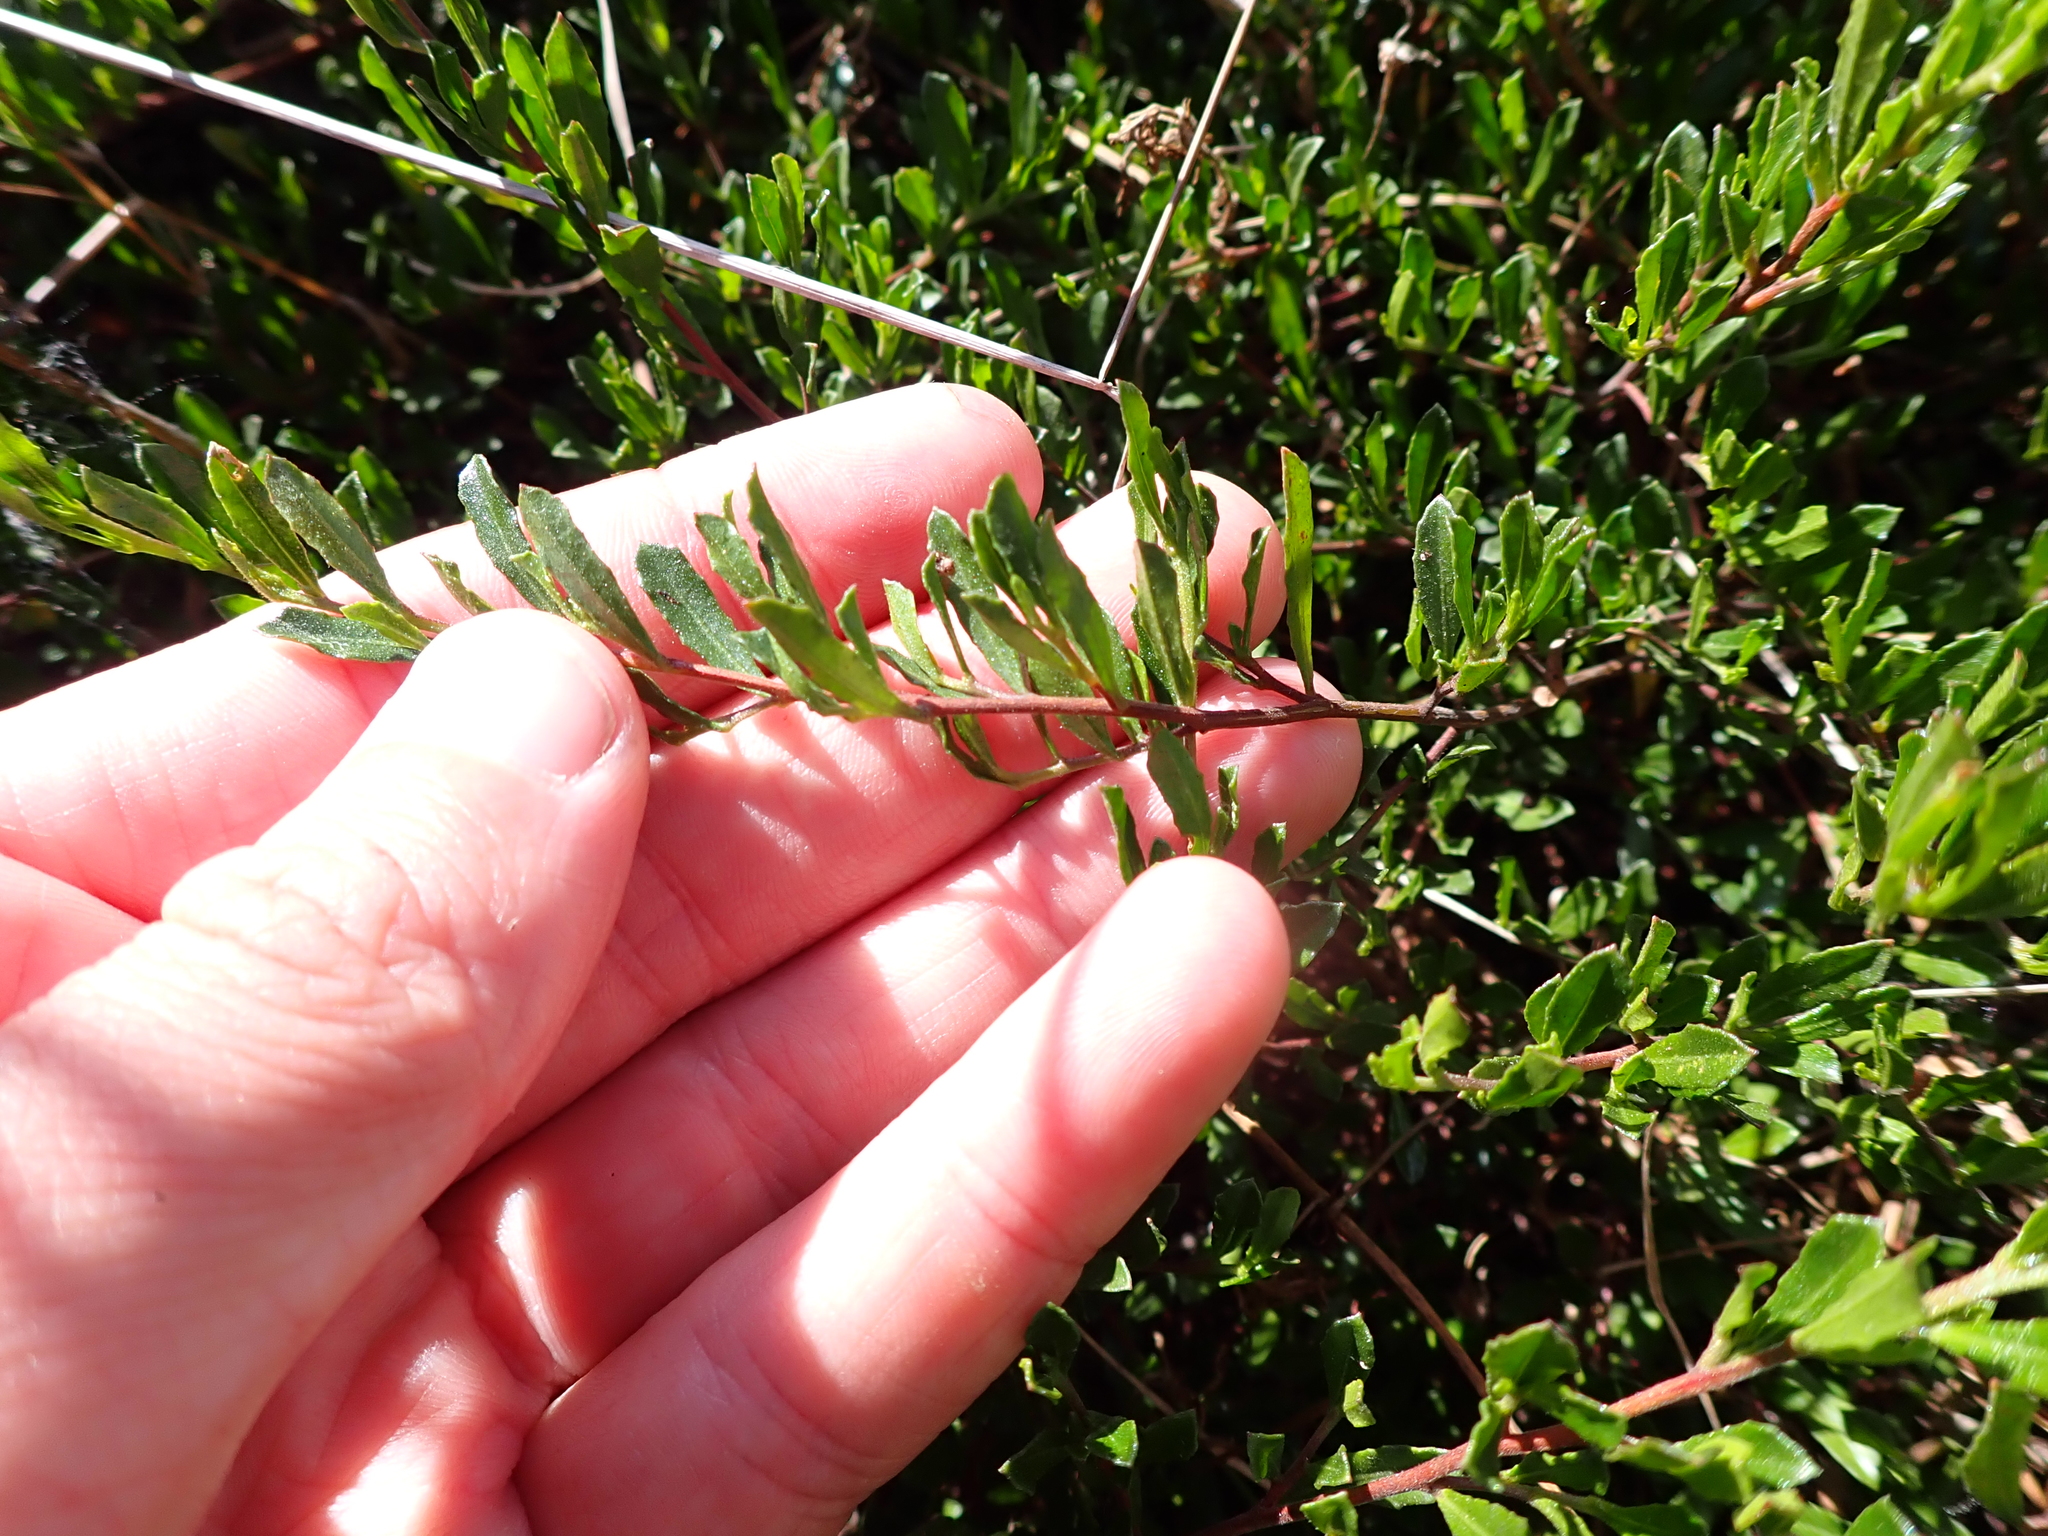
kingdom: Plantae
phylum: Tracheophyta
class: Magnoliopsida
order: Sapindales
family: Sapindaceae
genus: Dodonaea
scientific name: Dodonaea procumbens
